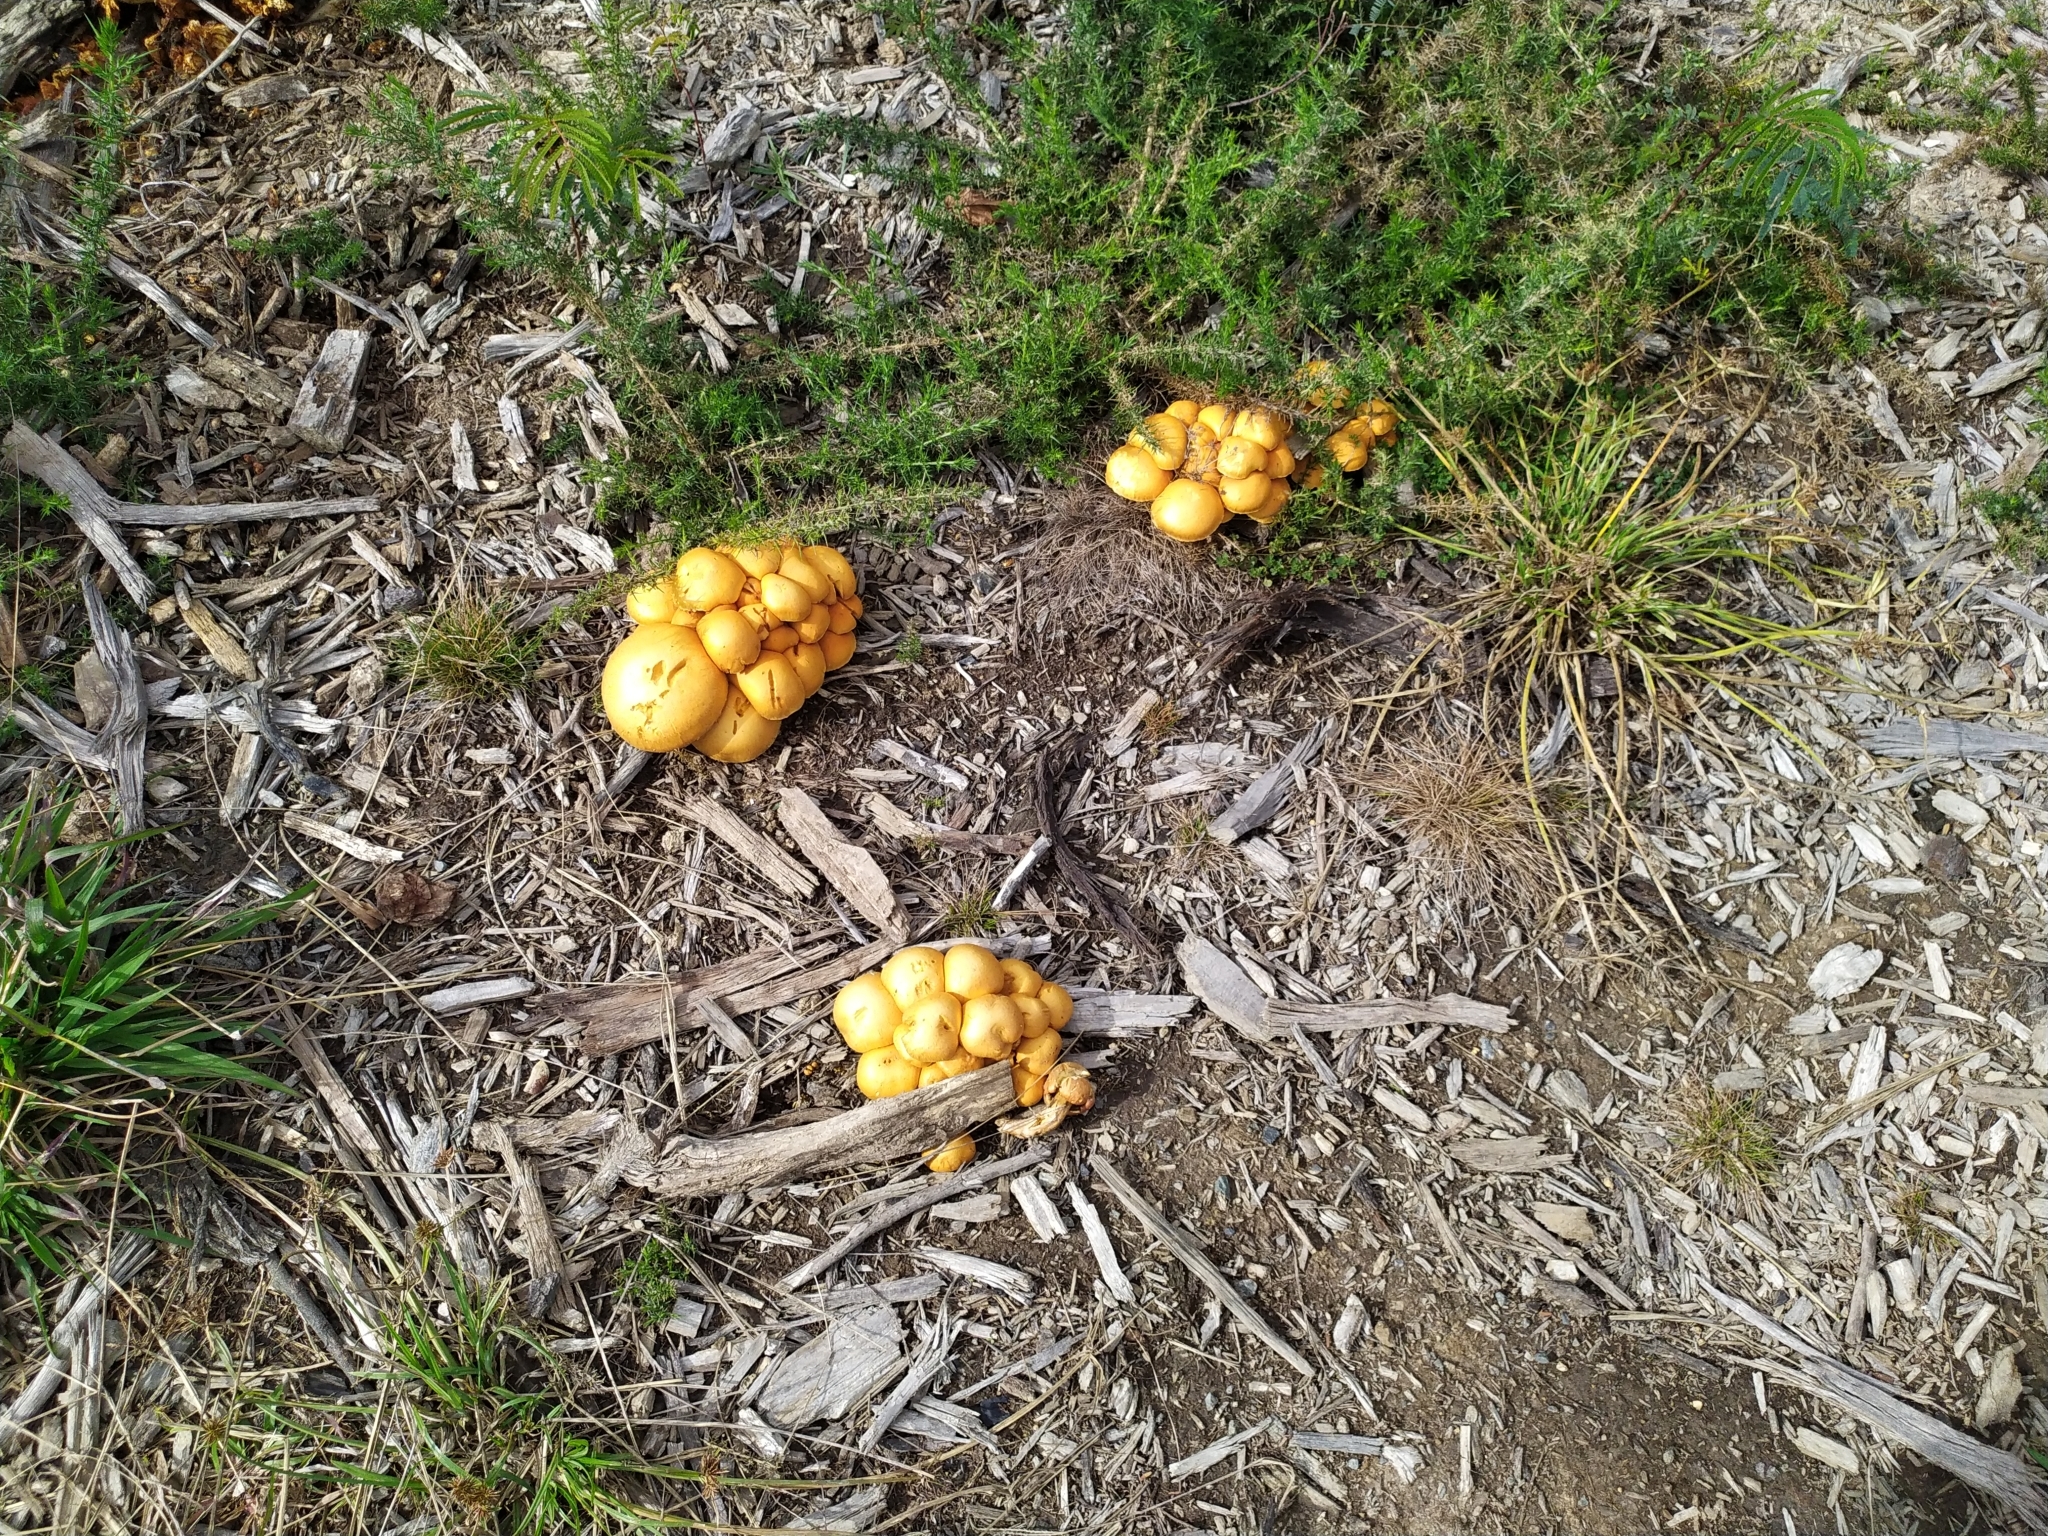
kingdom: Fungi
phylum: Basidiomycota
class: Agaricomycetes
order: Agaricales
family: Hymenogastraceae
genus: Gymnopilus
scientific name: Gymnopilus junonius
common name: Spectacular rustgill
